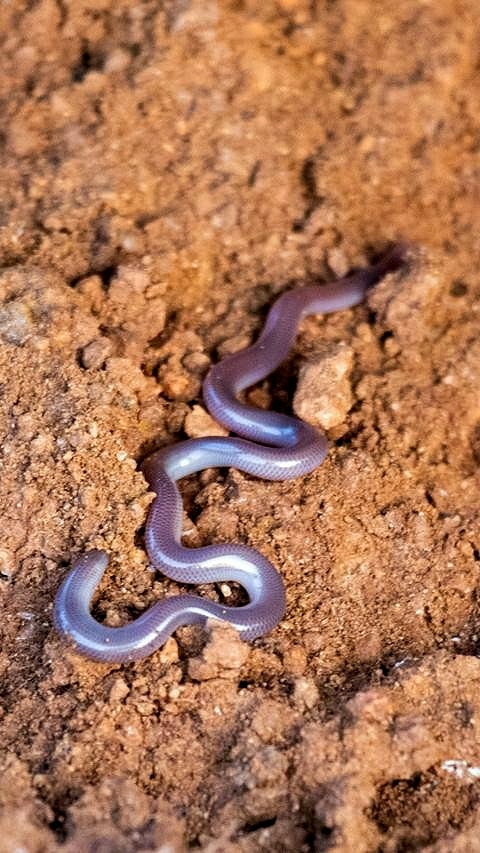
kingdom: Animalia
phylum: Chordata
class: Squamata
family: Typhlopidae
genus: Indotyphlops
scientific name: Indotyphlops braminus
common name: Brahminy blindsnake
